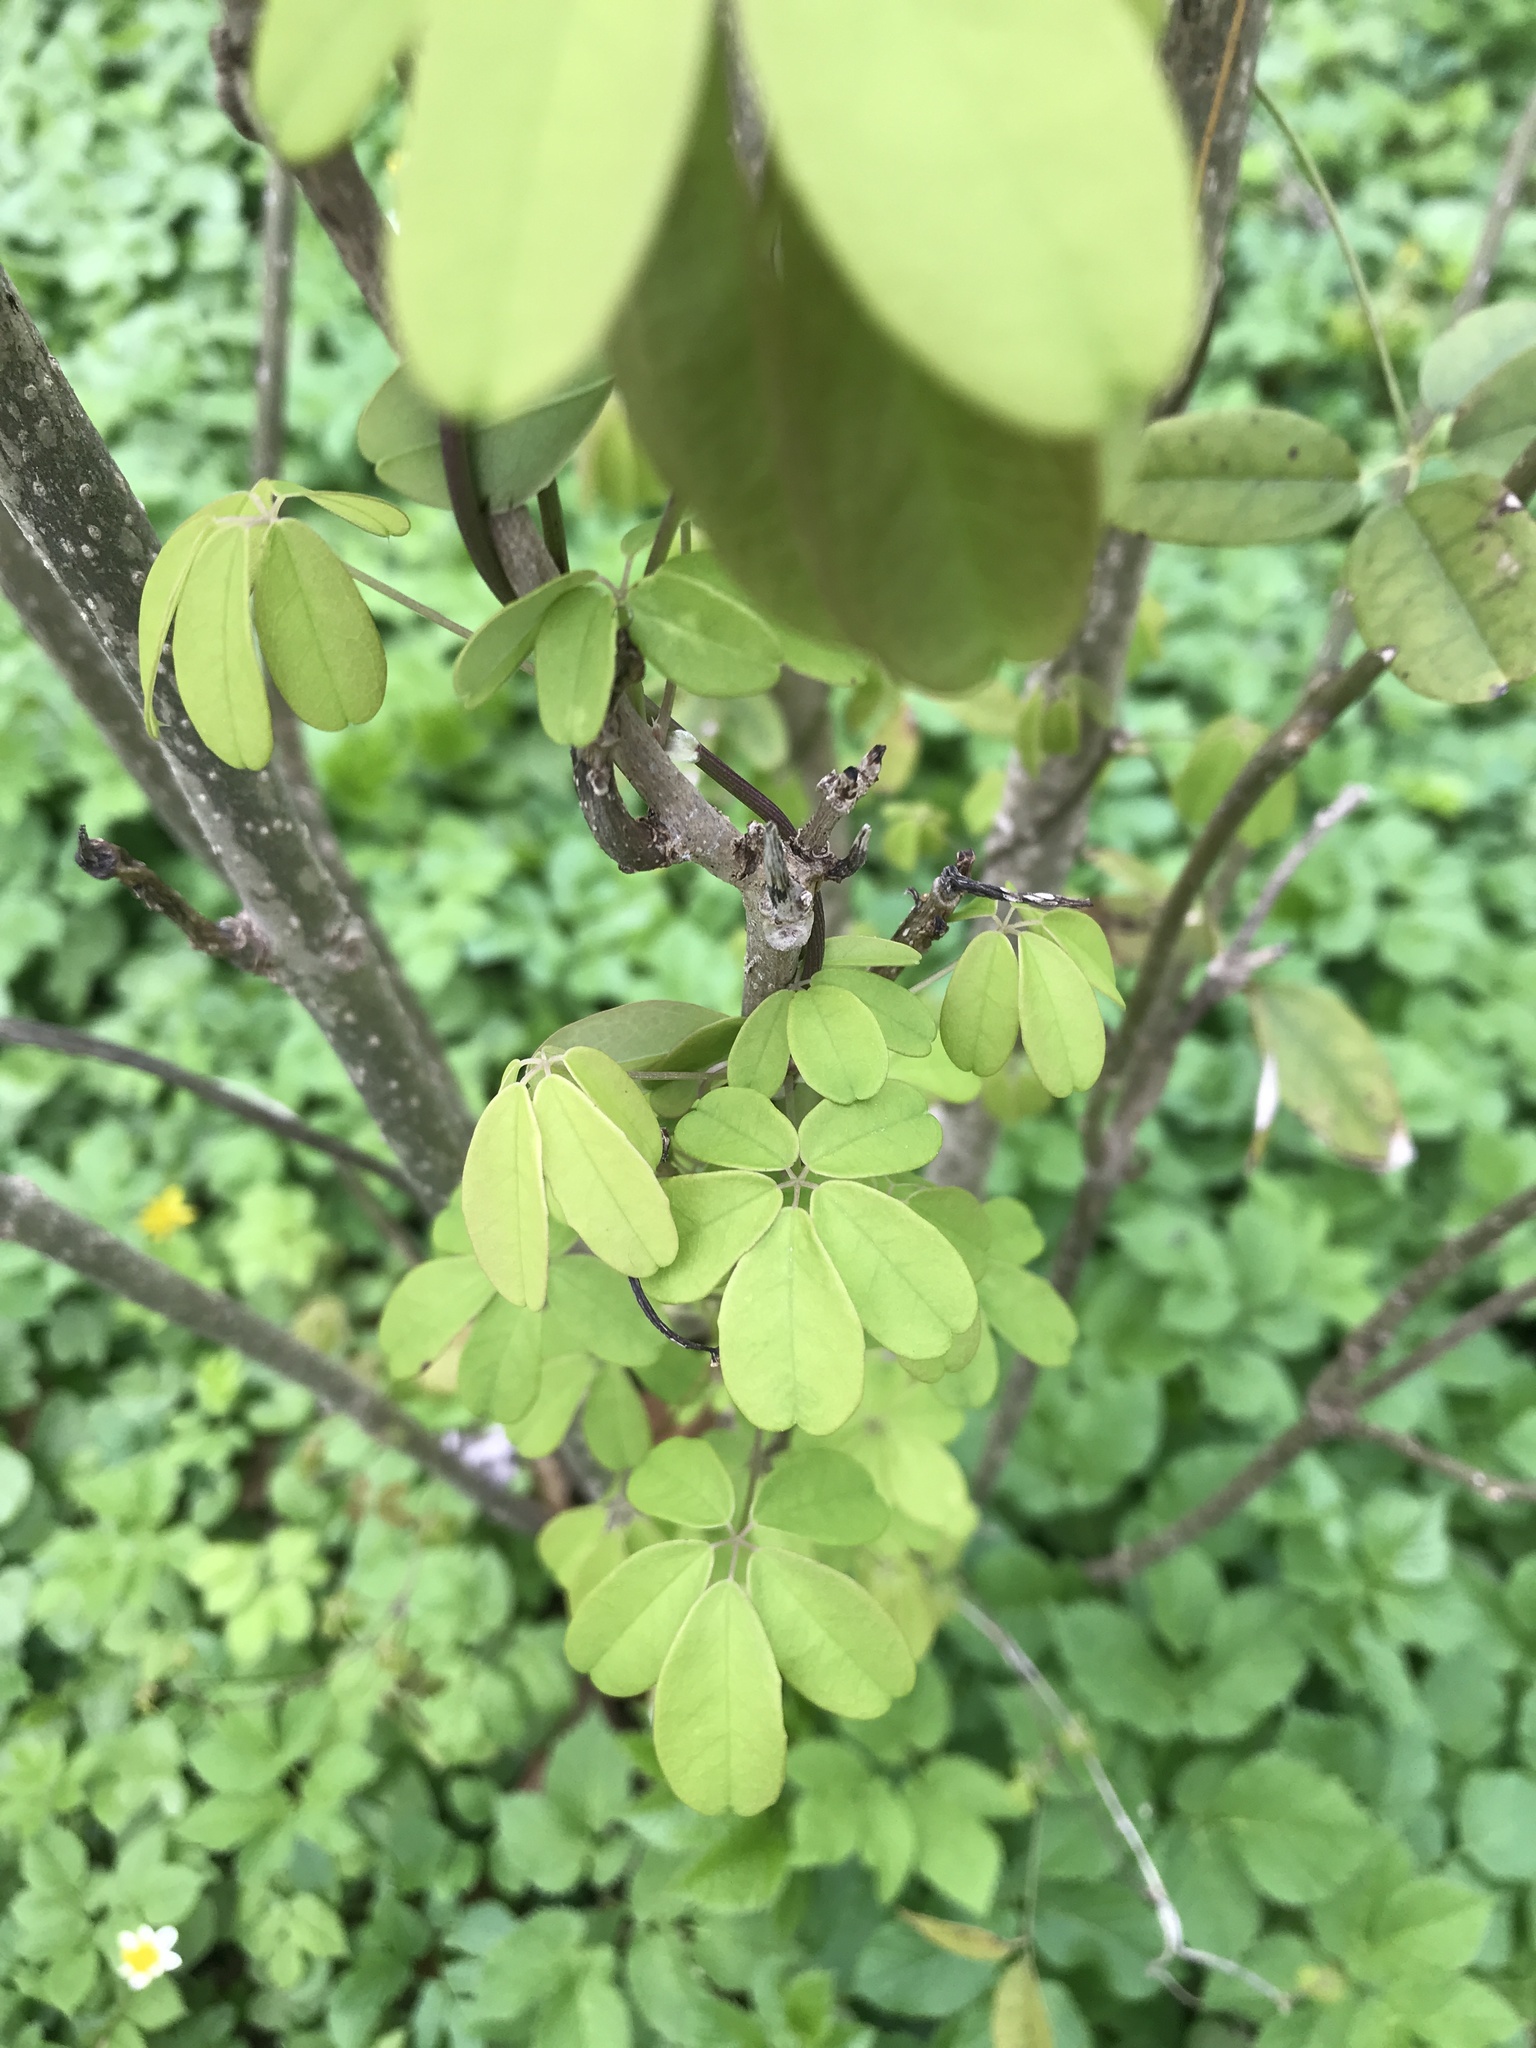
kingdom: Plantae
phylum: Tracheophyta
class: Magnoliopsida
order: Ranunculales
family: Lardizabalaceae
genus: Akebia
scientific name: Akebia quinata
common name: Five-leaf akebia
